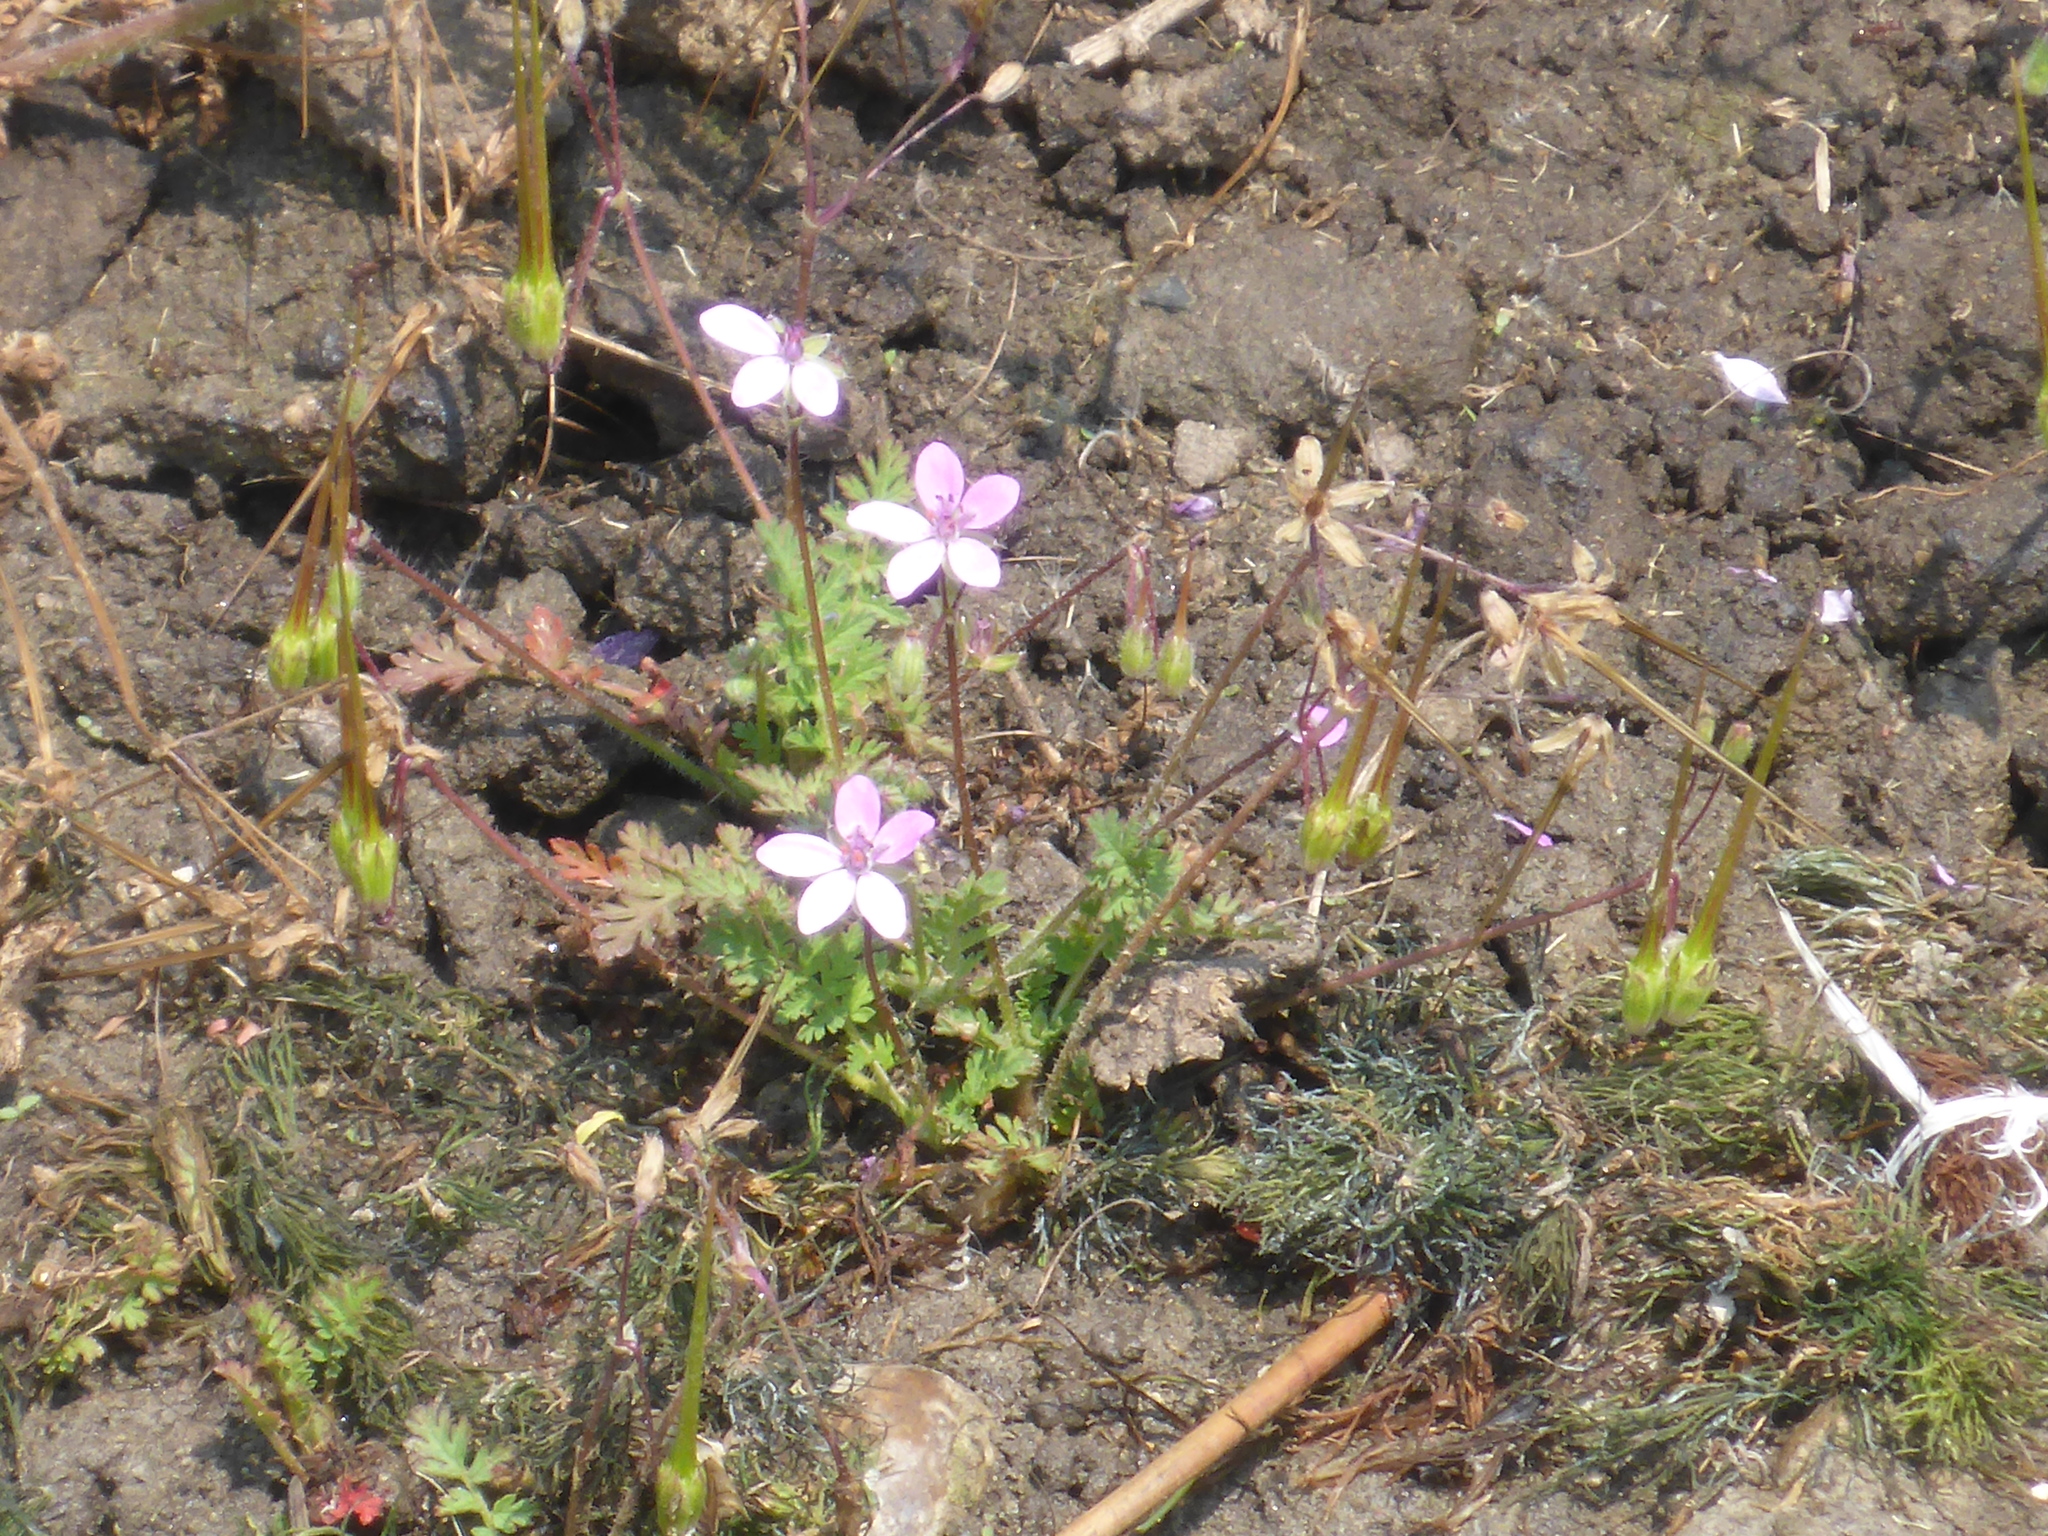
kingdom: Plantae
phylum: Tracheophyta
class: Magnoliopsida
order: Geraniales
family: Geraniaceae
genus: Erodium
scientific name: Erodium cicutarium
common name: Common stork's-bill
